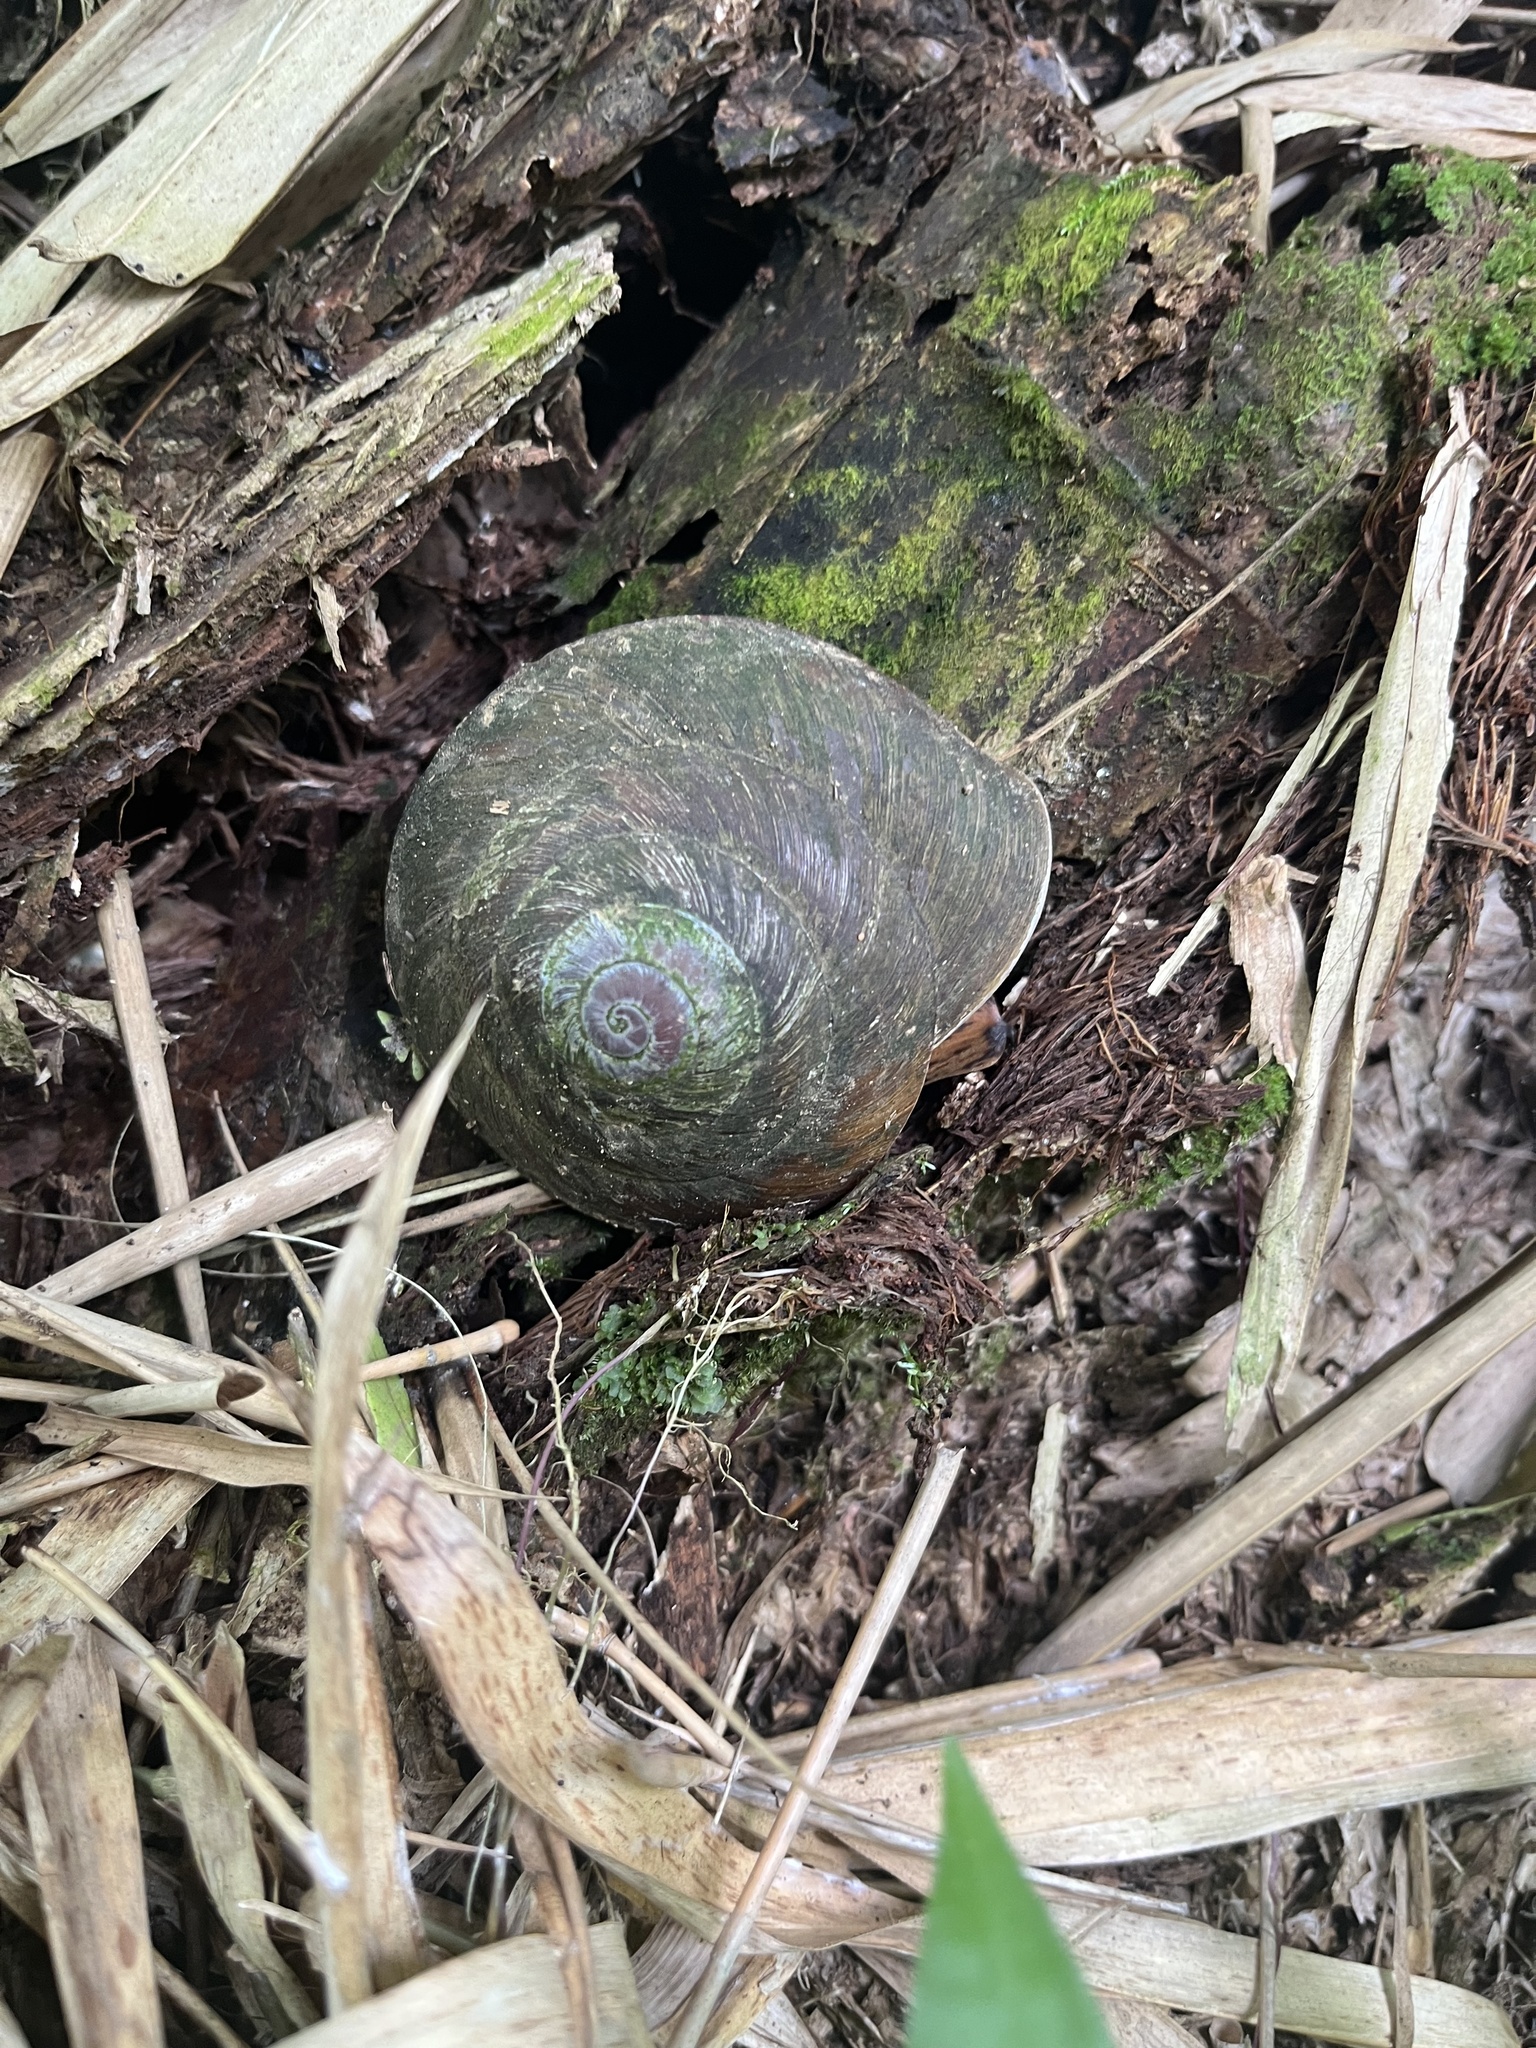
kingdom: Animalia
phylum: Mollusca
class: Gastropoda
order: Stylommatophora
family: Solaropsidae
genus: Caracolus
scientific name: Caracolus carocolla
